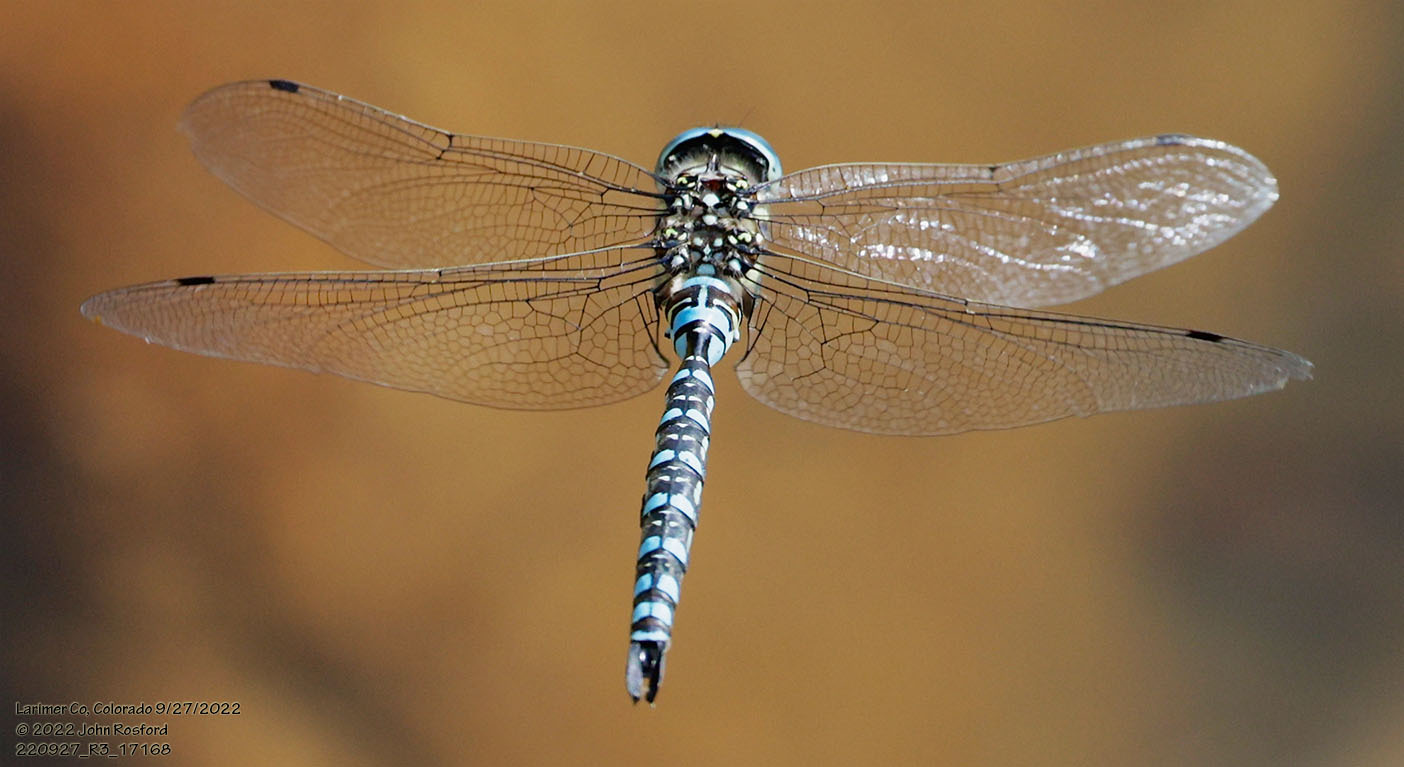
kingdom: Animalia
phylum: Arthropoda
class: Insecta
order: Odonata
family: Aeshnidae
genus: Aeshna
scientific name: Aeshna palmata
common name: Paddle-tailed darner
